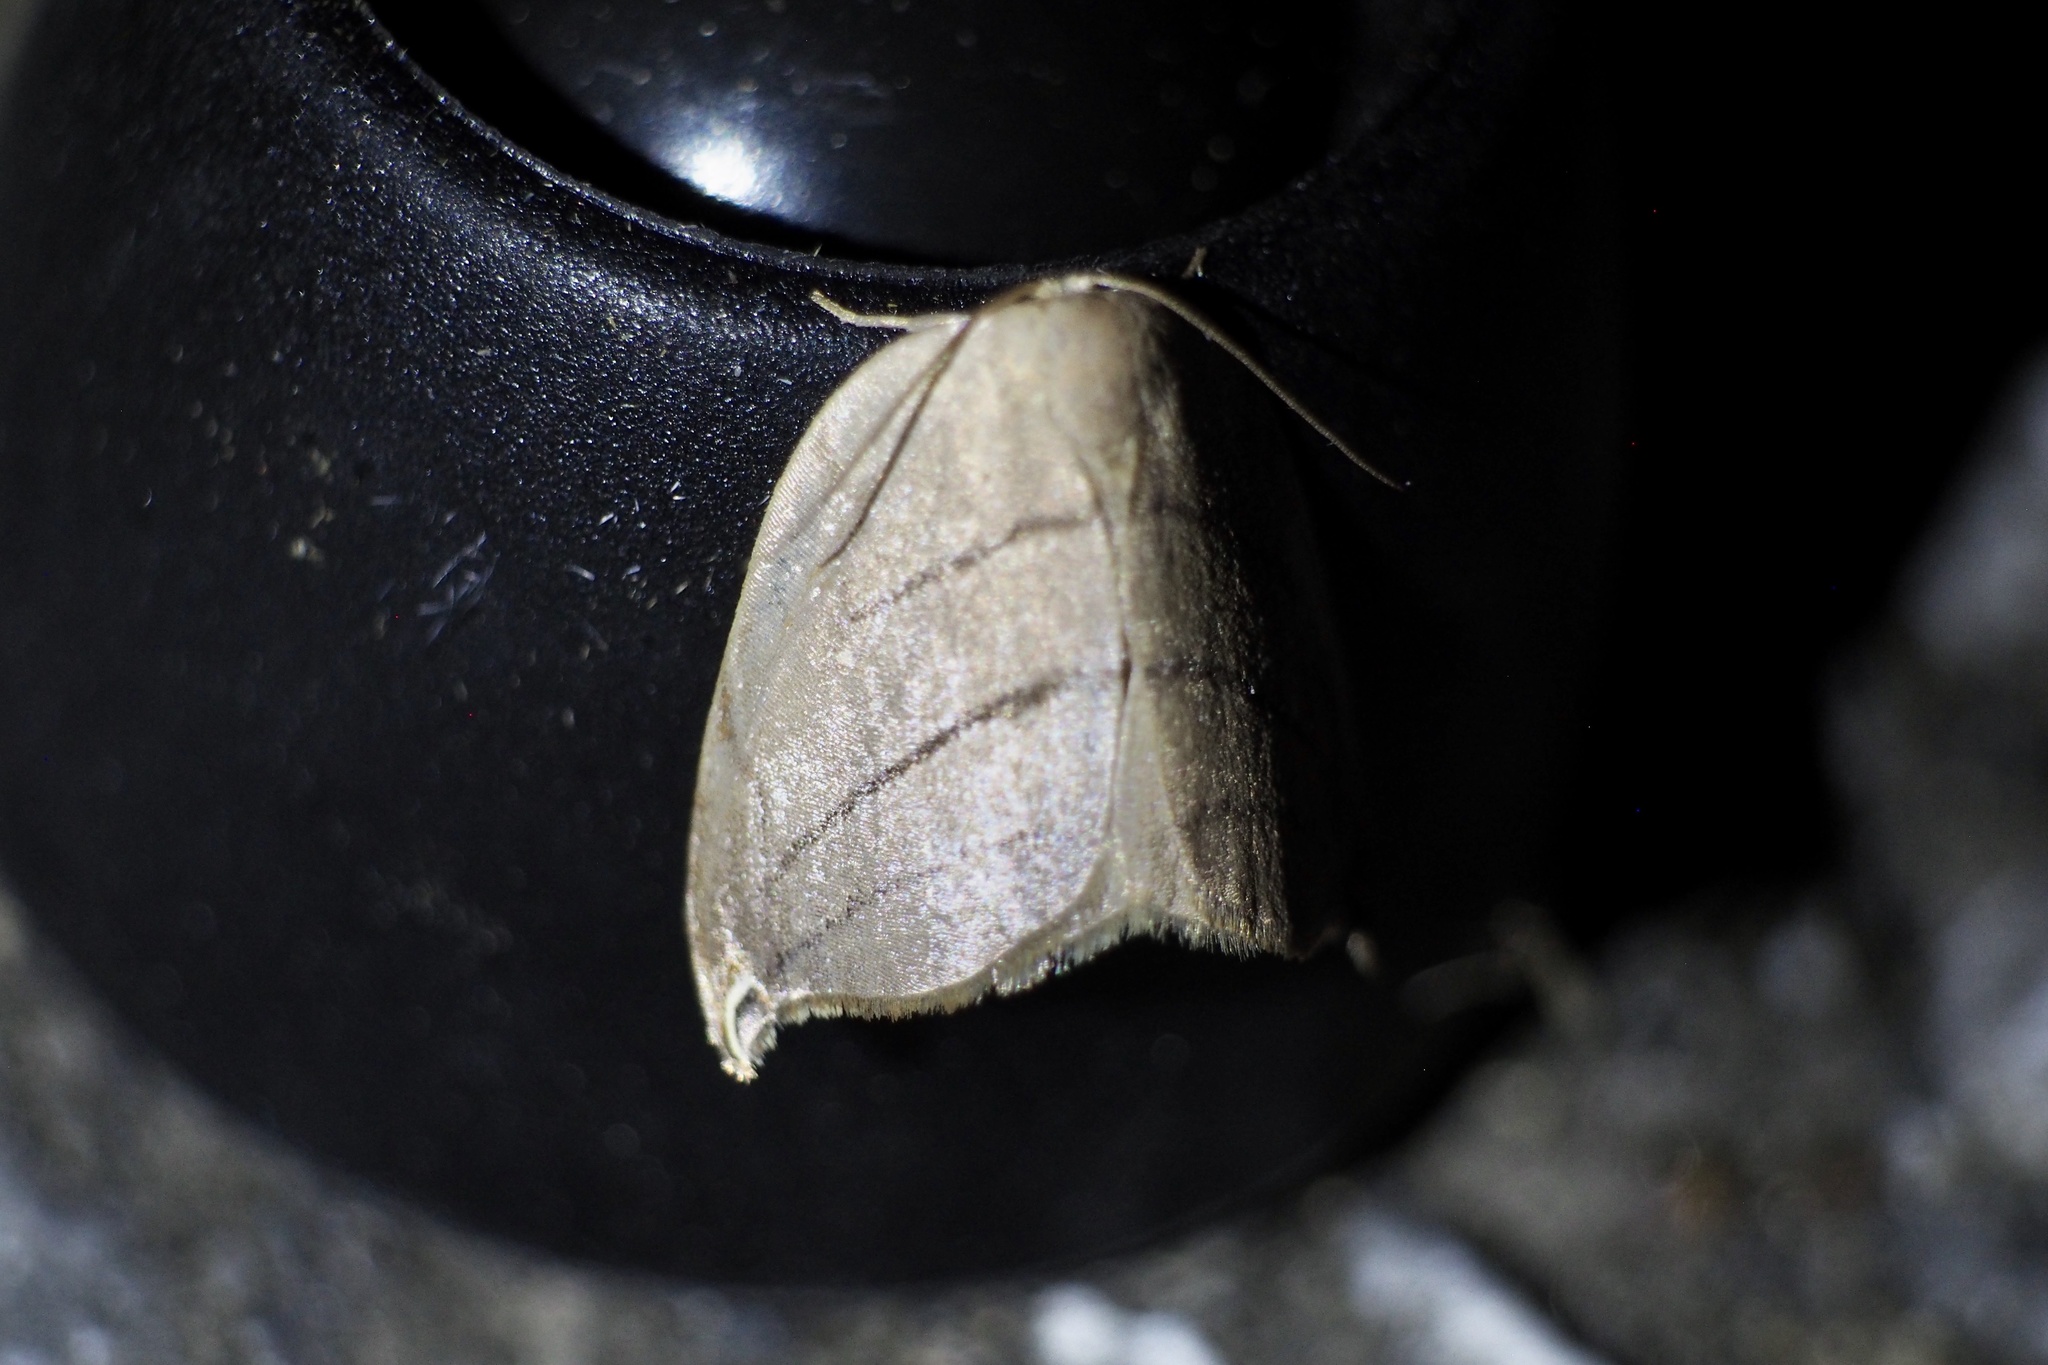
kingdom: Animalia
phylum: Arthropoda
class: Insecta
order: Lepidoptera
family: Drepanidae
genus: Pseudalbara
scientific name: Pseudalbara parvula
